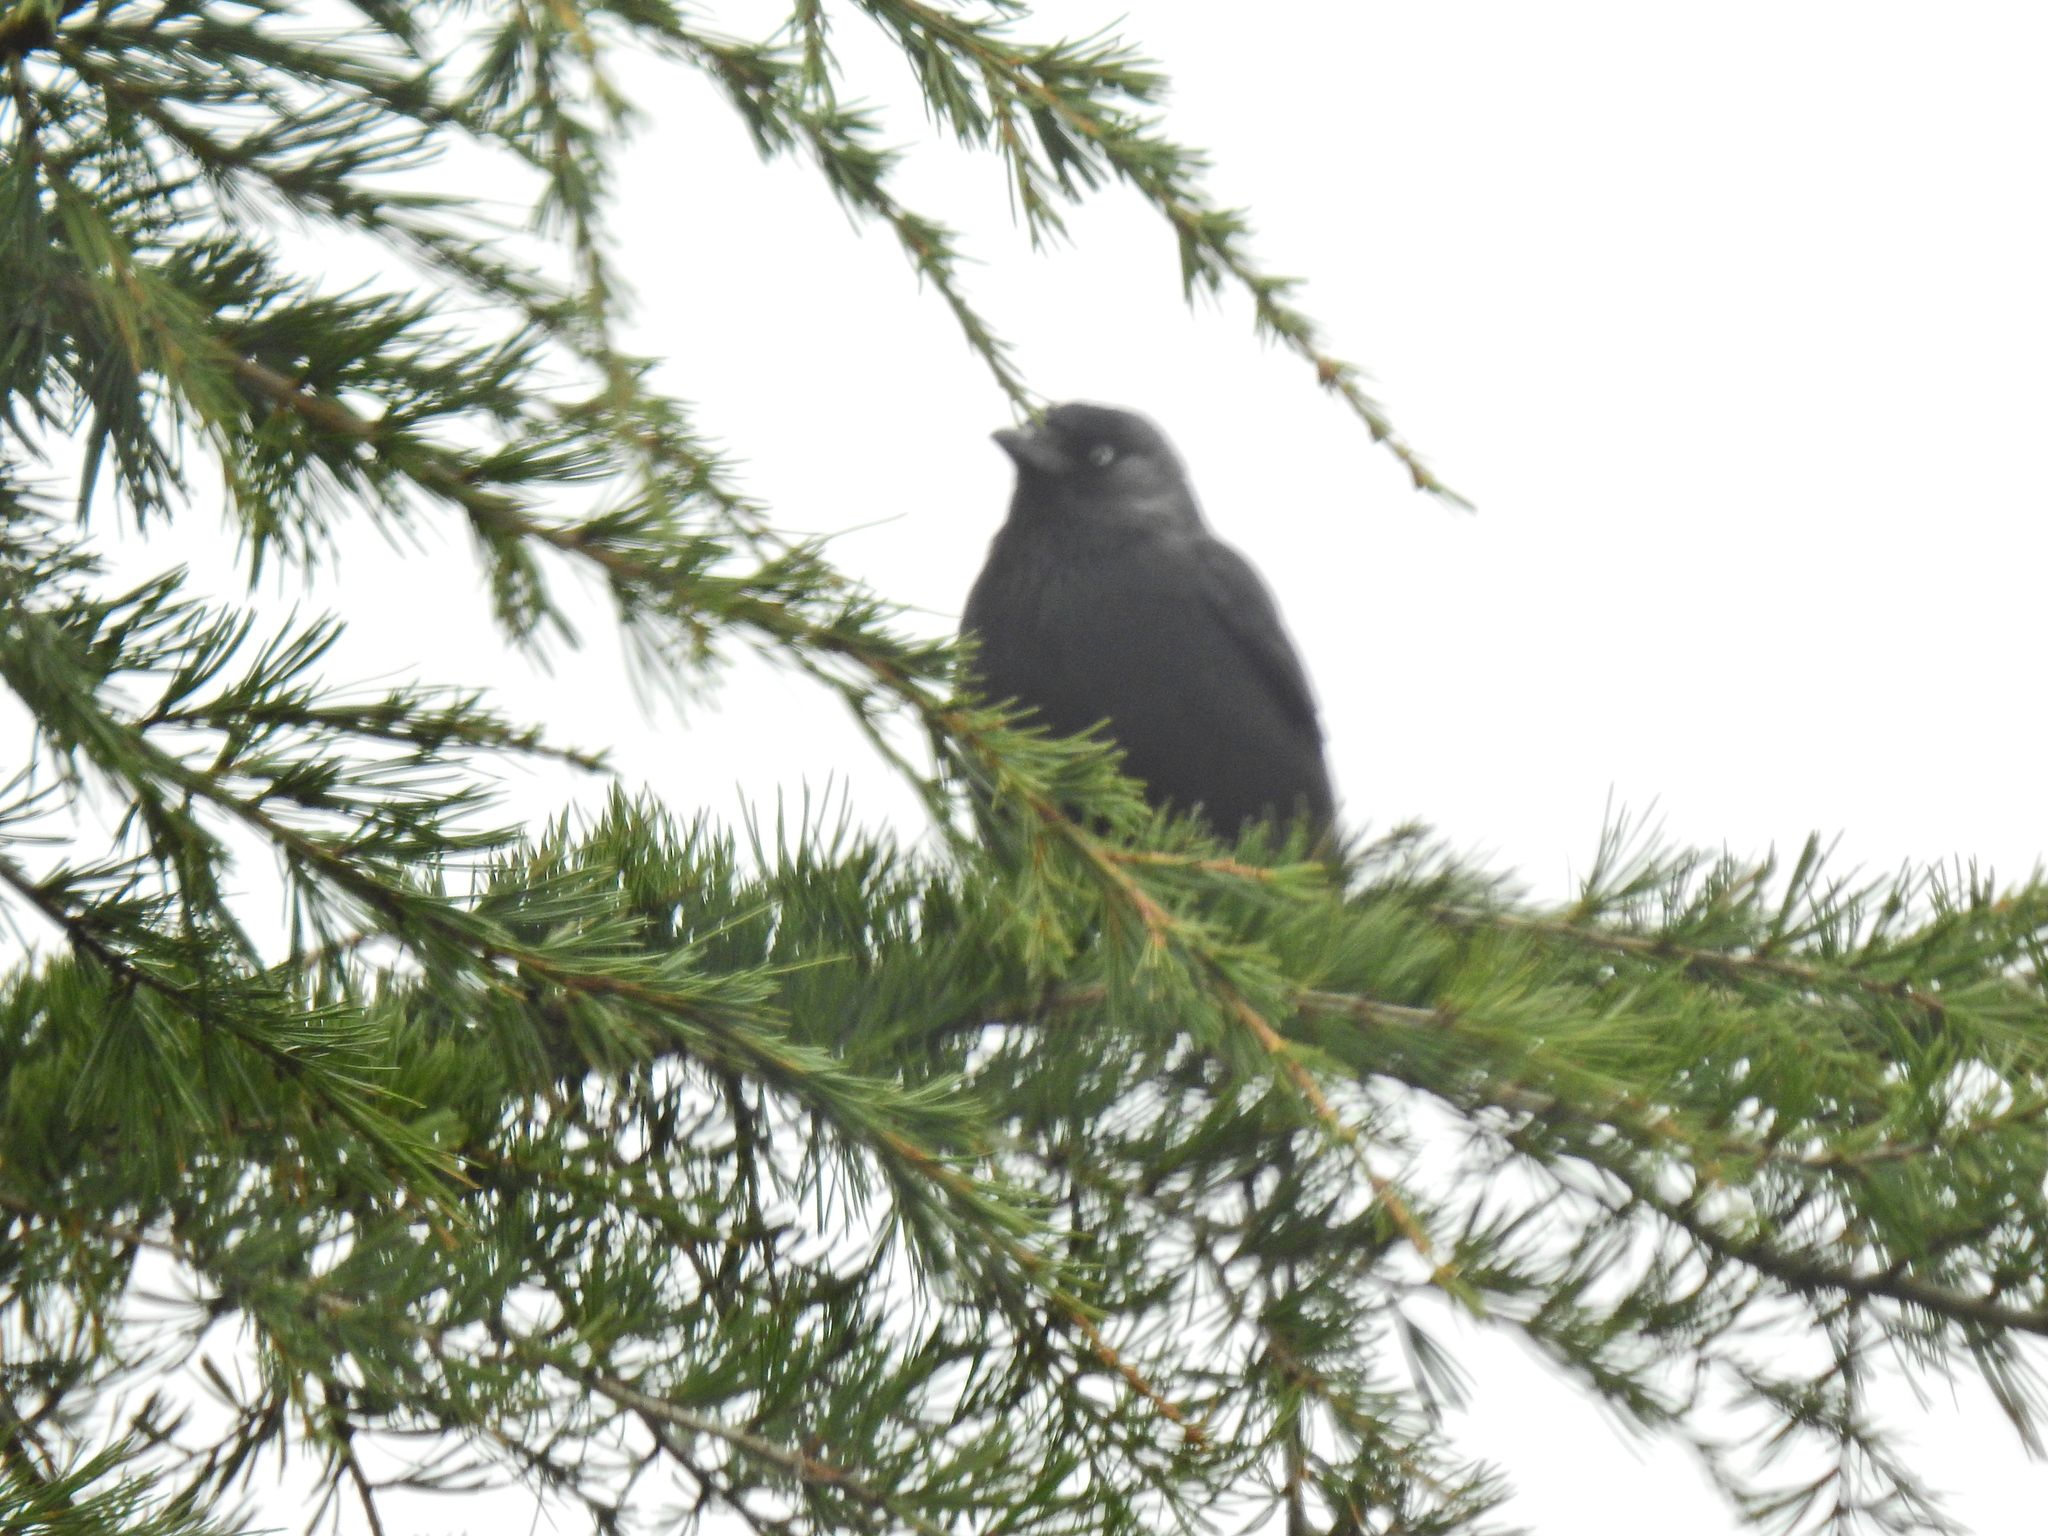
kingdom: Animalia
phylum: Chordata
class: Aves
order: Passeriformes
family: Corvidae
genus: Coloeus
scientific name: Coloeus monedula
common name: Western jackdaw
